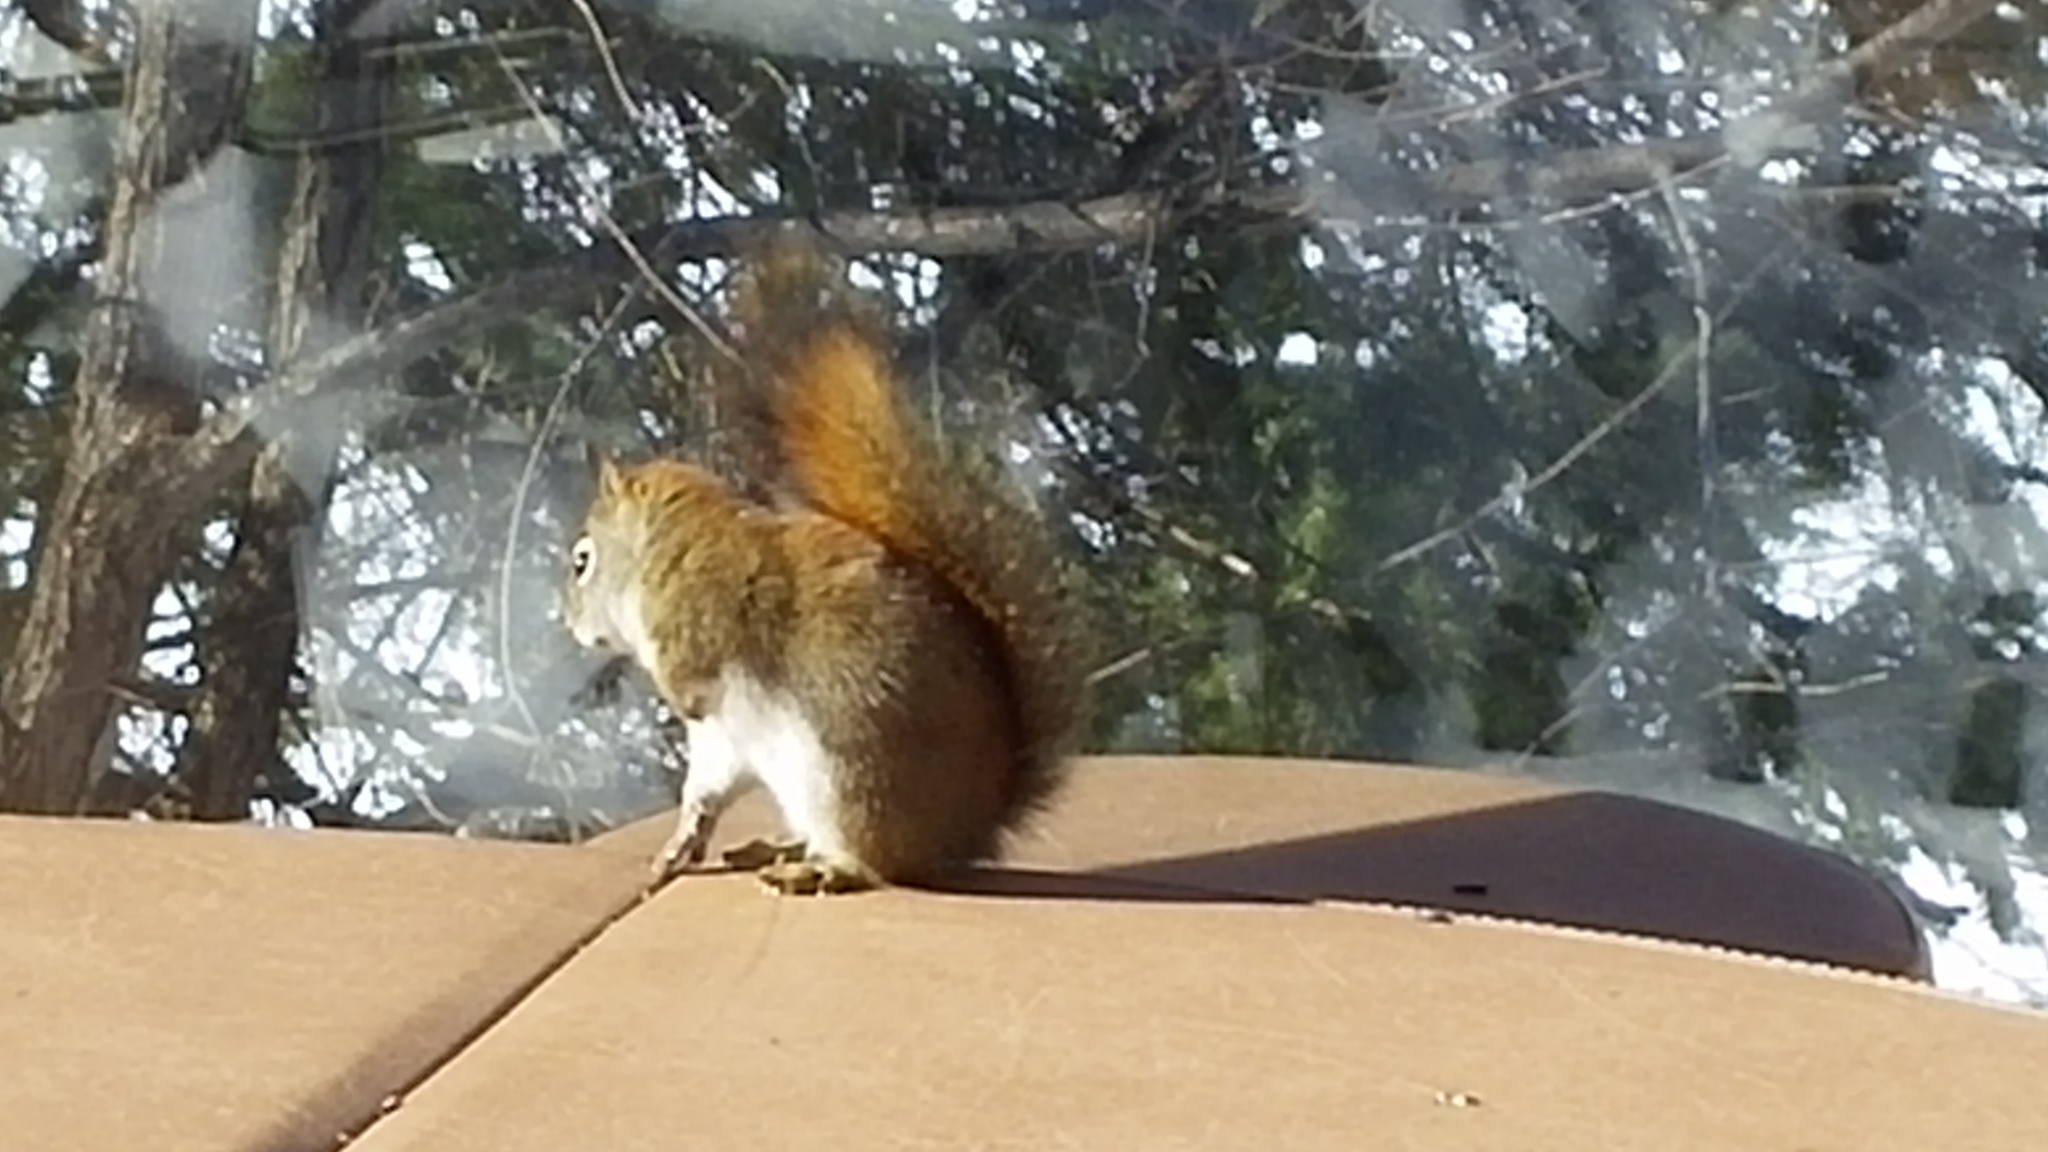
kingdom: Animalia
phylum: Chordata
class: Mammalia
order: Rodentia
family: Sciuridae
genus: Tamiasciurus
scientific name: Tamiasciurus hudsonicus
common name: Red squirrel
